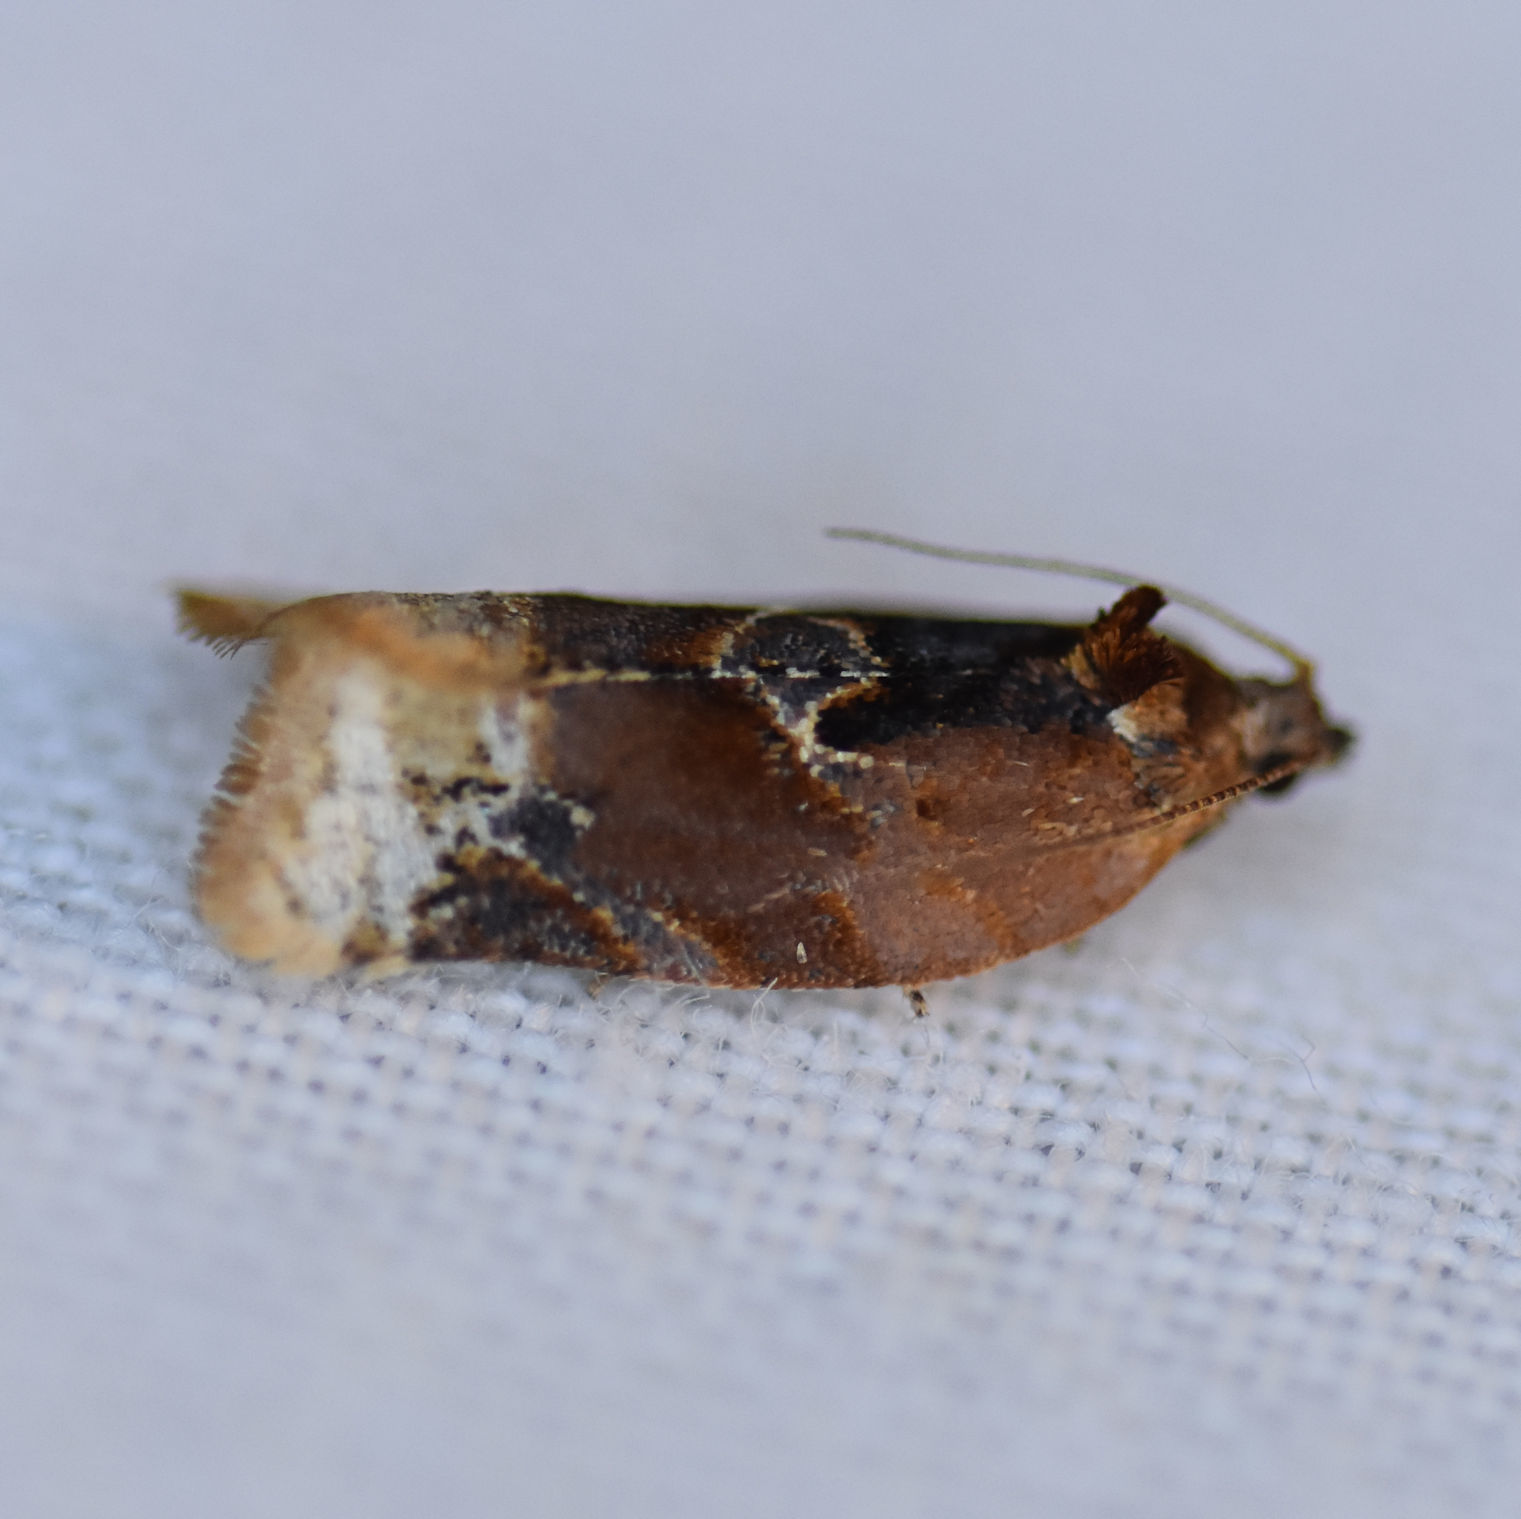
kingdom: Animalia
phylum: Arthropoda
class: Insecta
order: Lepidoptera
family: Tortricidae
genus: Argyrotaenia
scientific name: Argyrotaenia velutinana
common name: Red-banded leafroller moth
